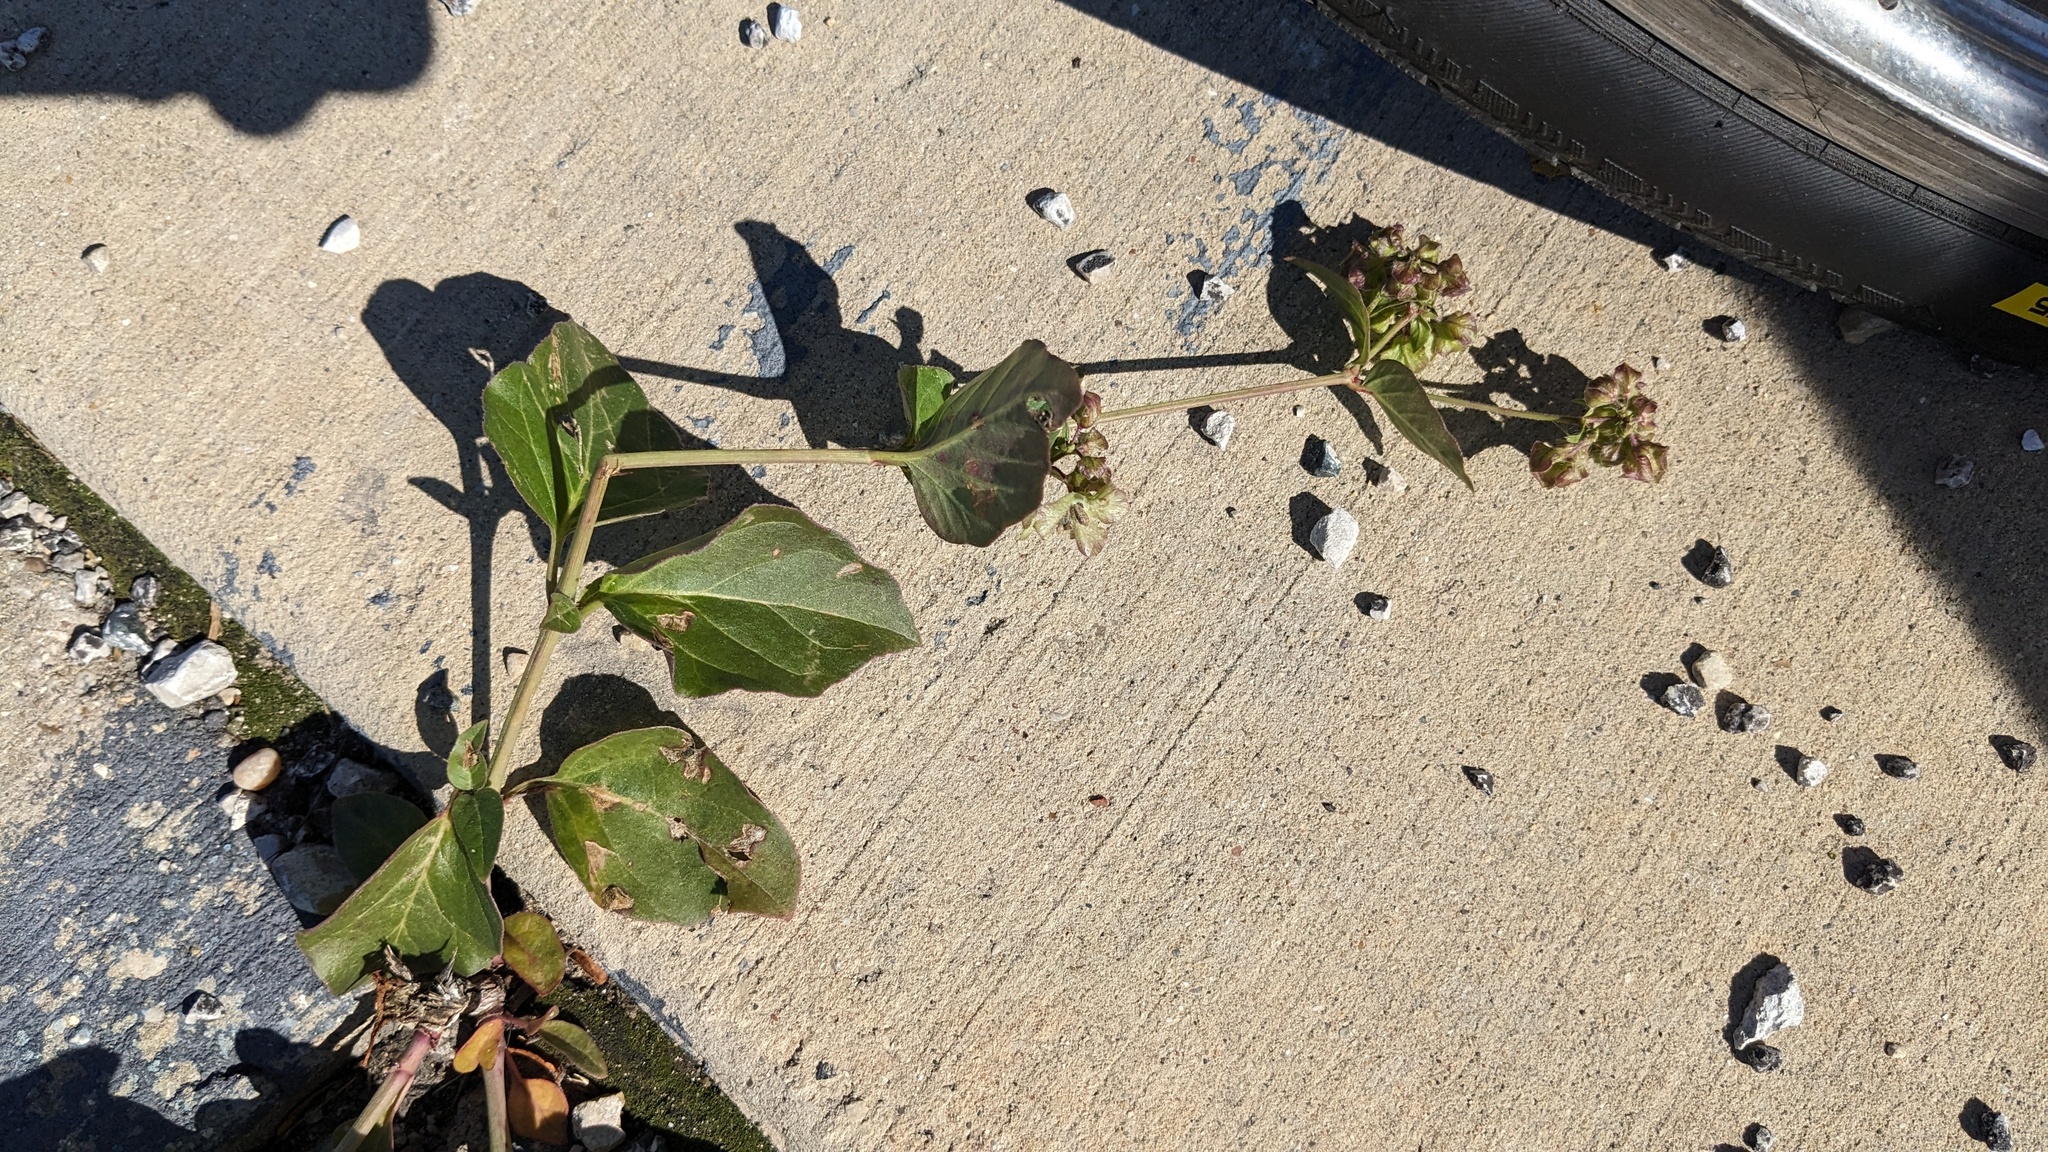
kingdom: Plantae
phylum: Tracheophyta
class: Magnoliopsida
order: Caryophyllales
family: Nyctaginaceae
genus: Mirabilis
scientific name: Mirabilis nyctaginea
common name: Umbrella wort
